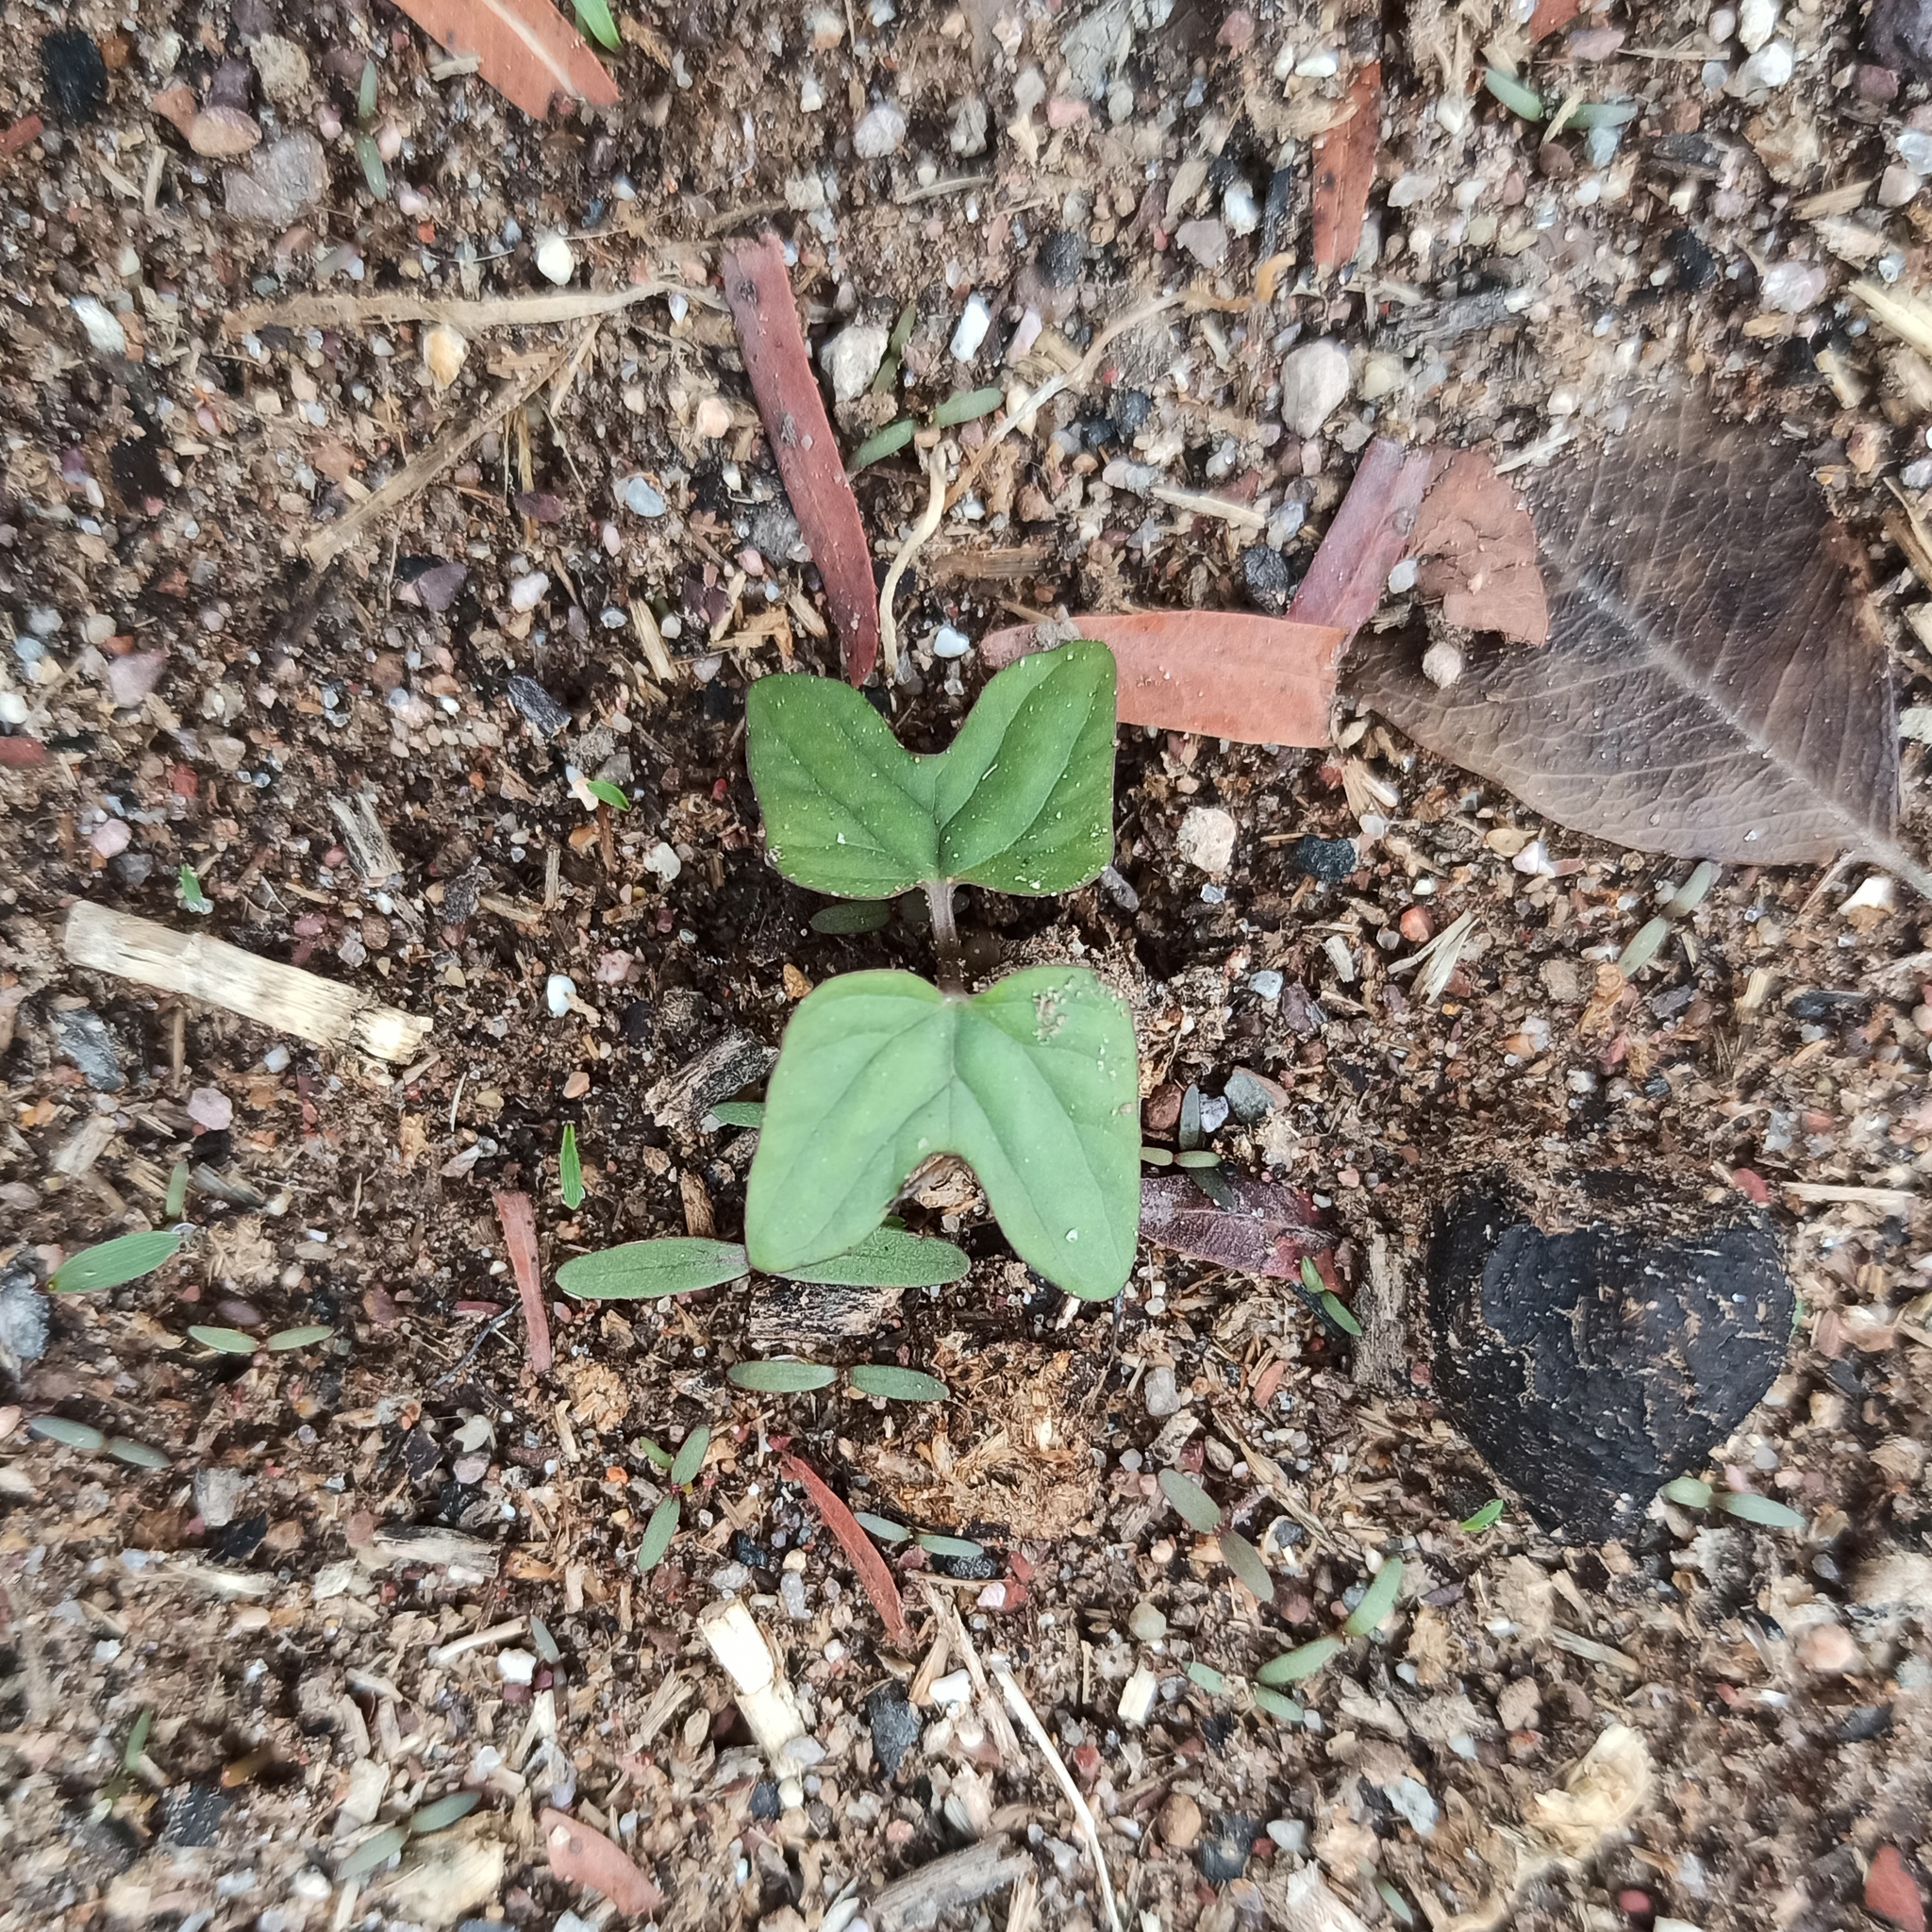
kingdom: Plantae
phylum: Tracheophyta
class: Magnoliopsida
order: Solanales
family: Convolvulaceae
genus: Ipomoea
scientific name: Ipomoea
